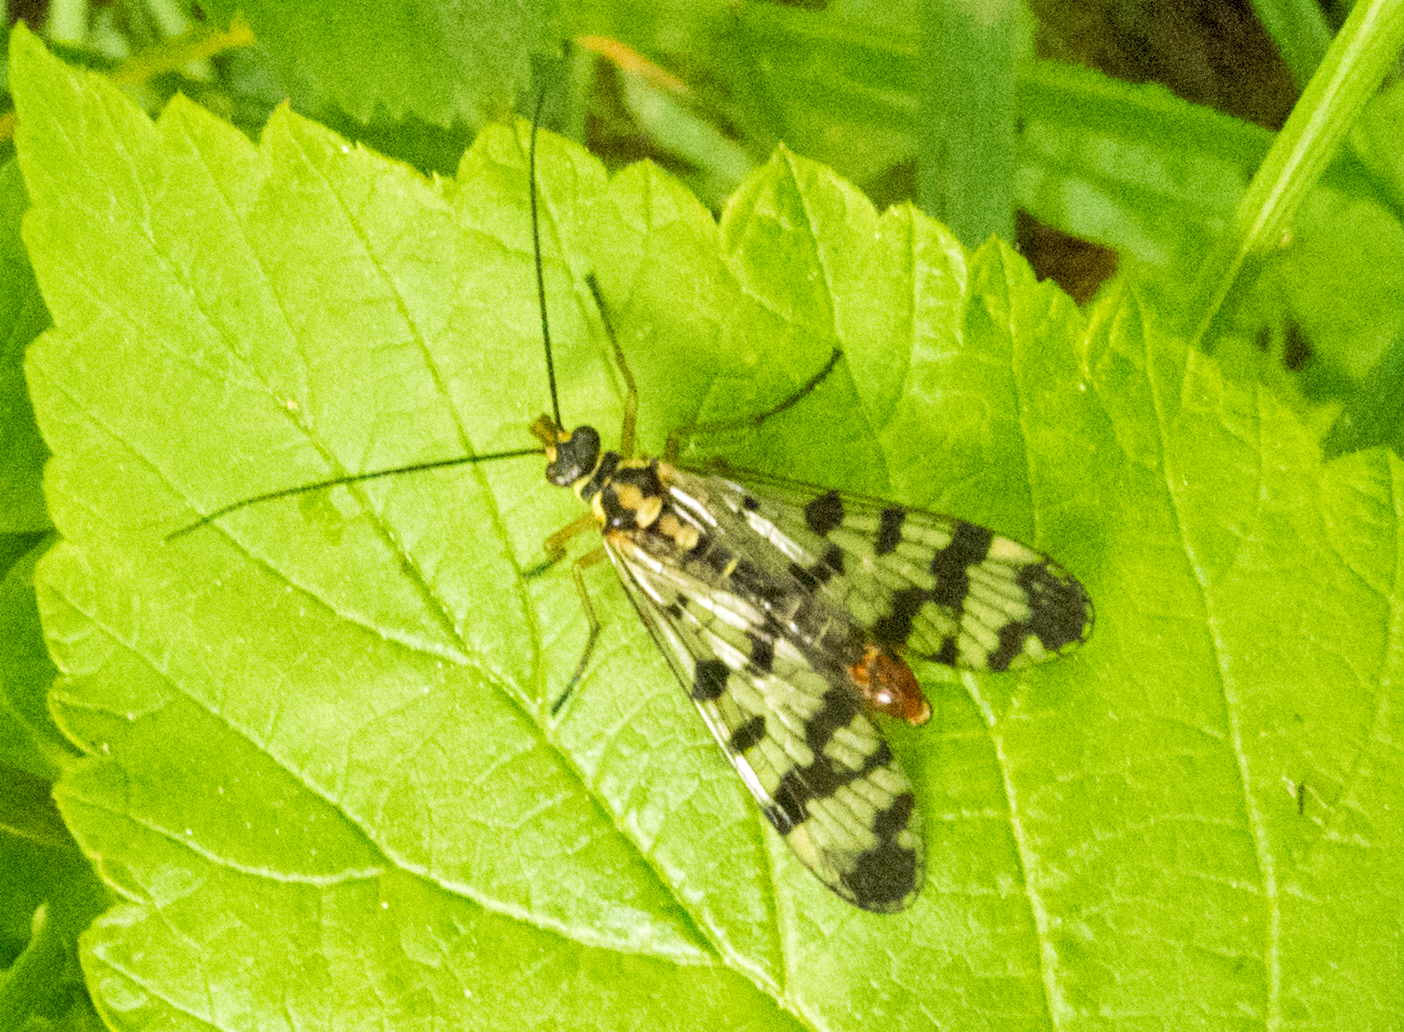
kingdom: Animalia
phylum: Arthropoda
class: Insecta
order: Mecoptera
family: Panorpidae
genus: Panorpa
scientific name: Panorpa communis
